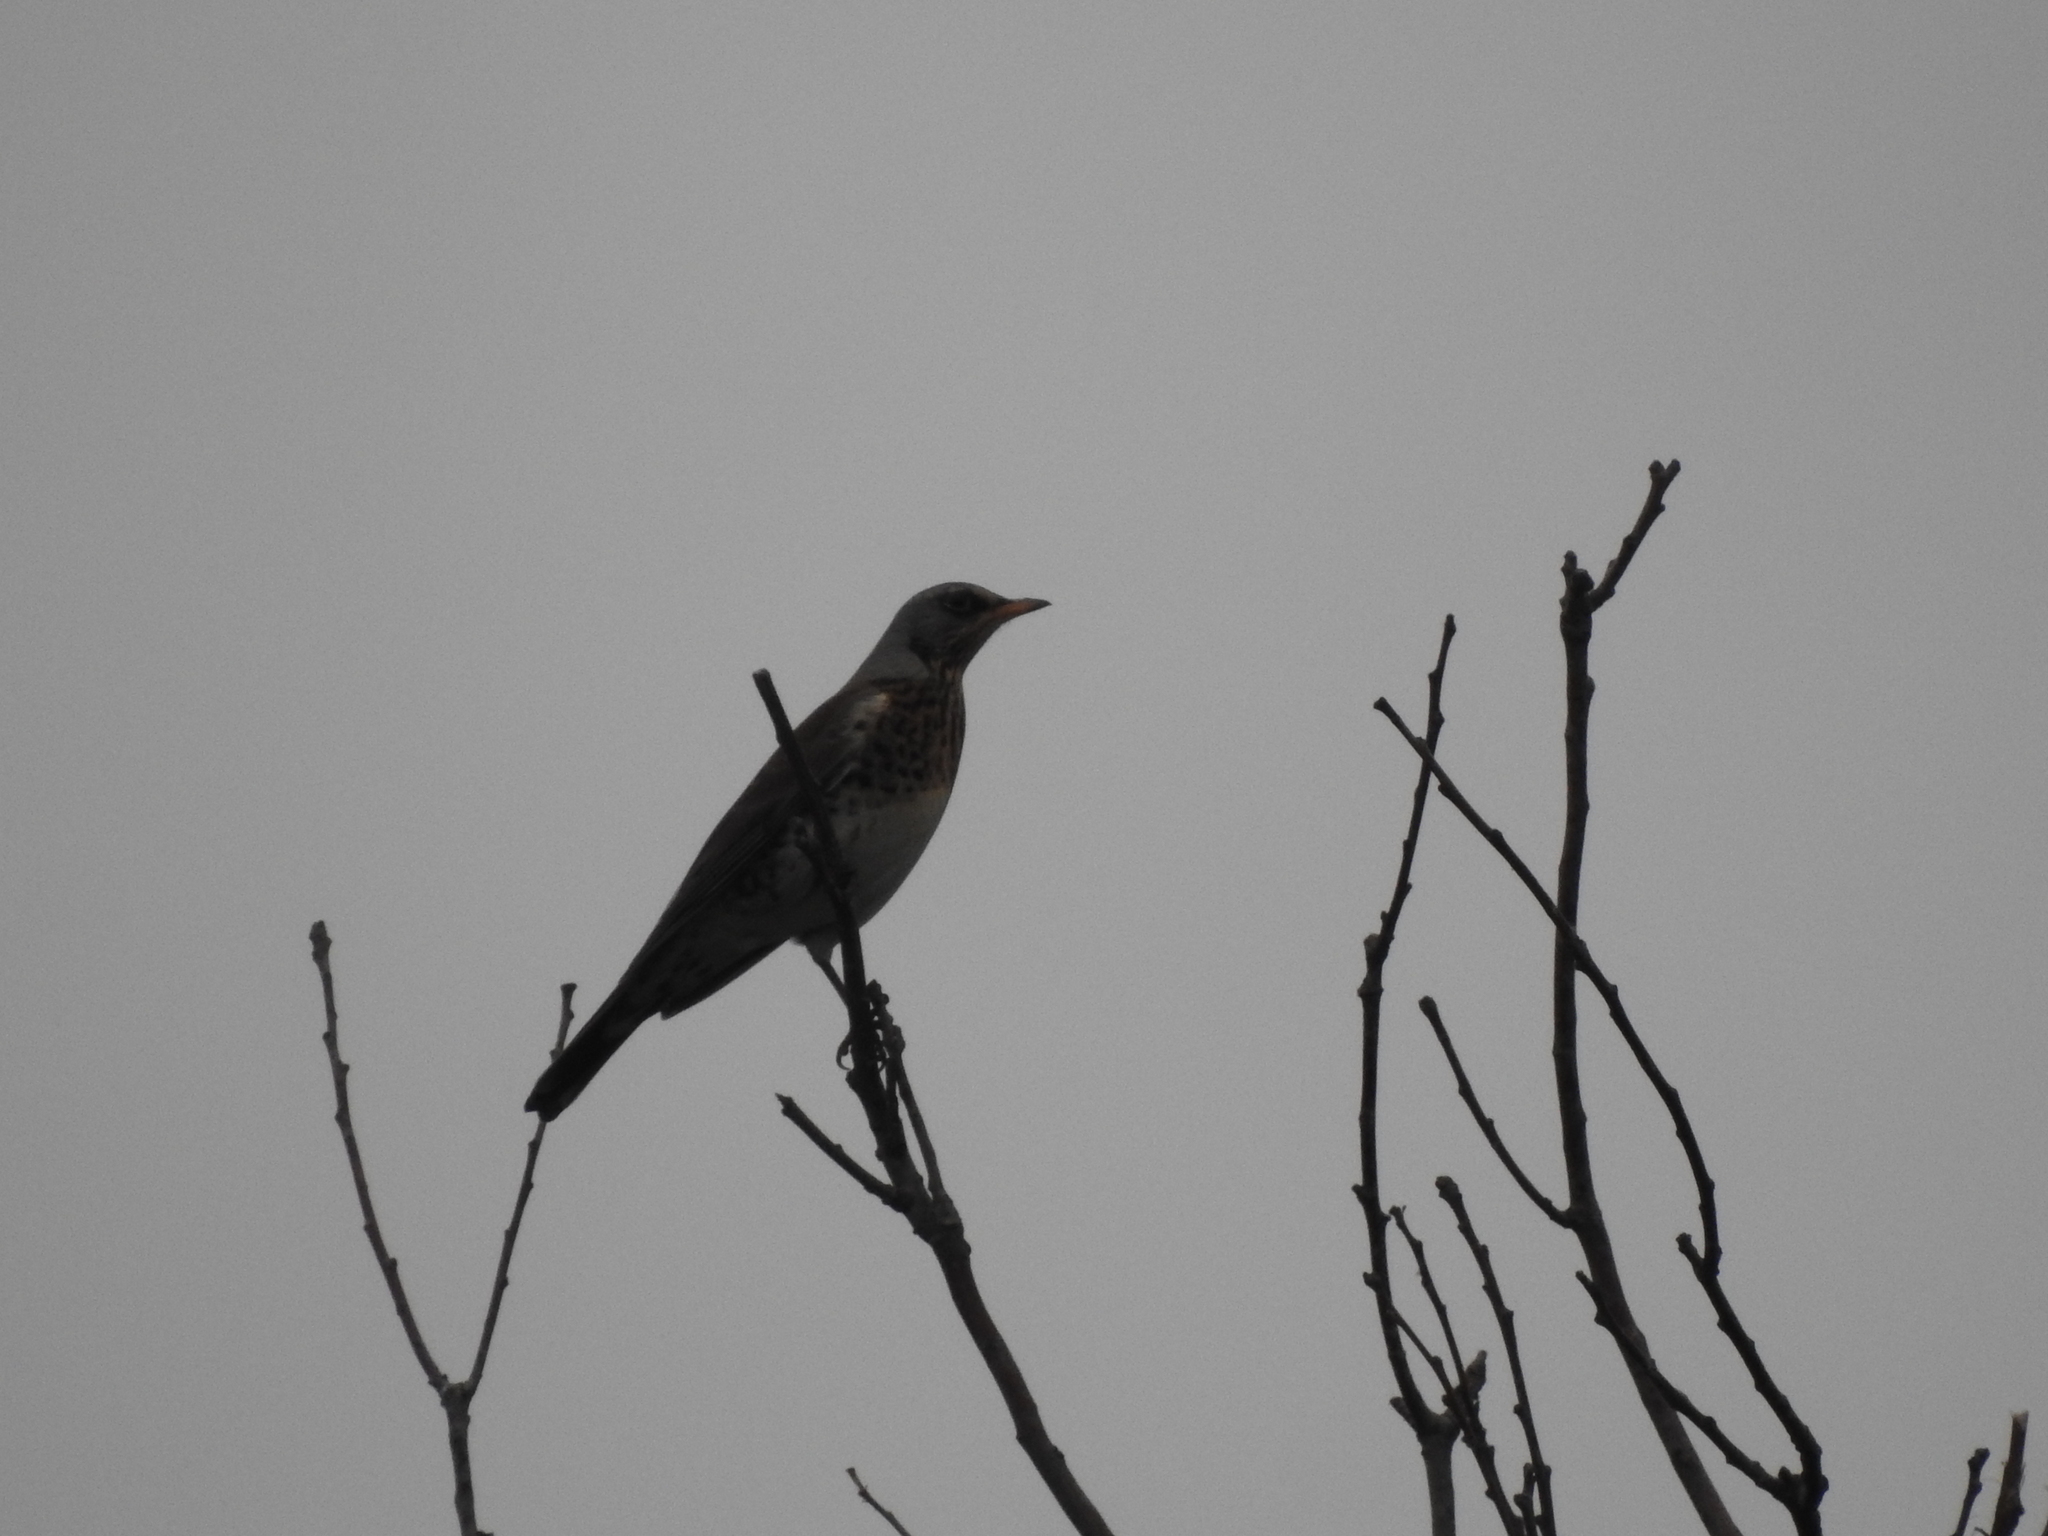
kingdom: Animalia
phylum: Chordata
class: Aves
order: Passeriformes
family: Turdidae
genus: Turdus
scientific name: Turdus pilaris
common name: Fieldfare
